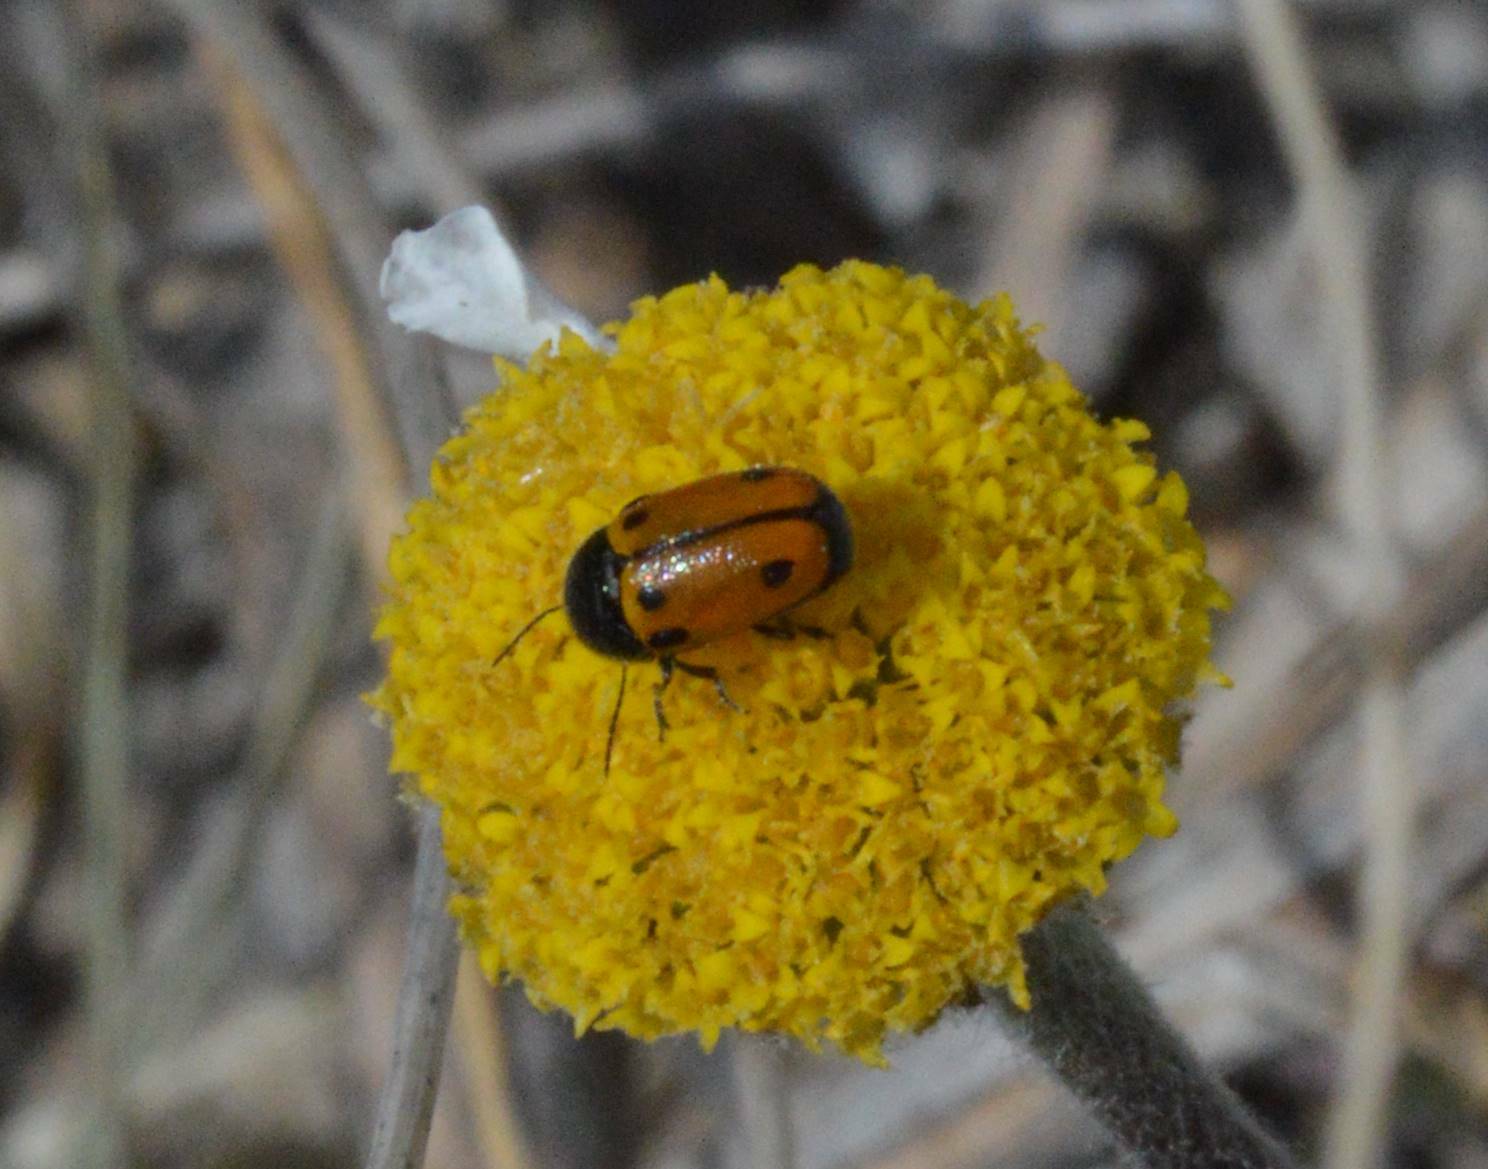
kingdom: Animalia
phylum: Arthropoda
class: Insecta
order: Coleoptera
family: Chrysomelidae
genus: Cryptocephalus
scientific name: Cryptocephalus rugicollis
